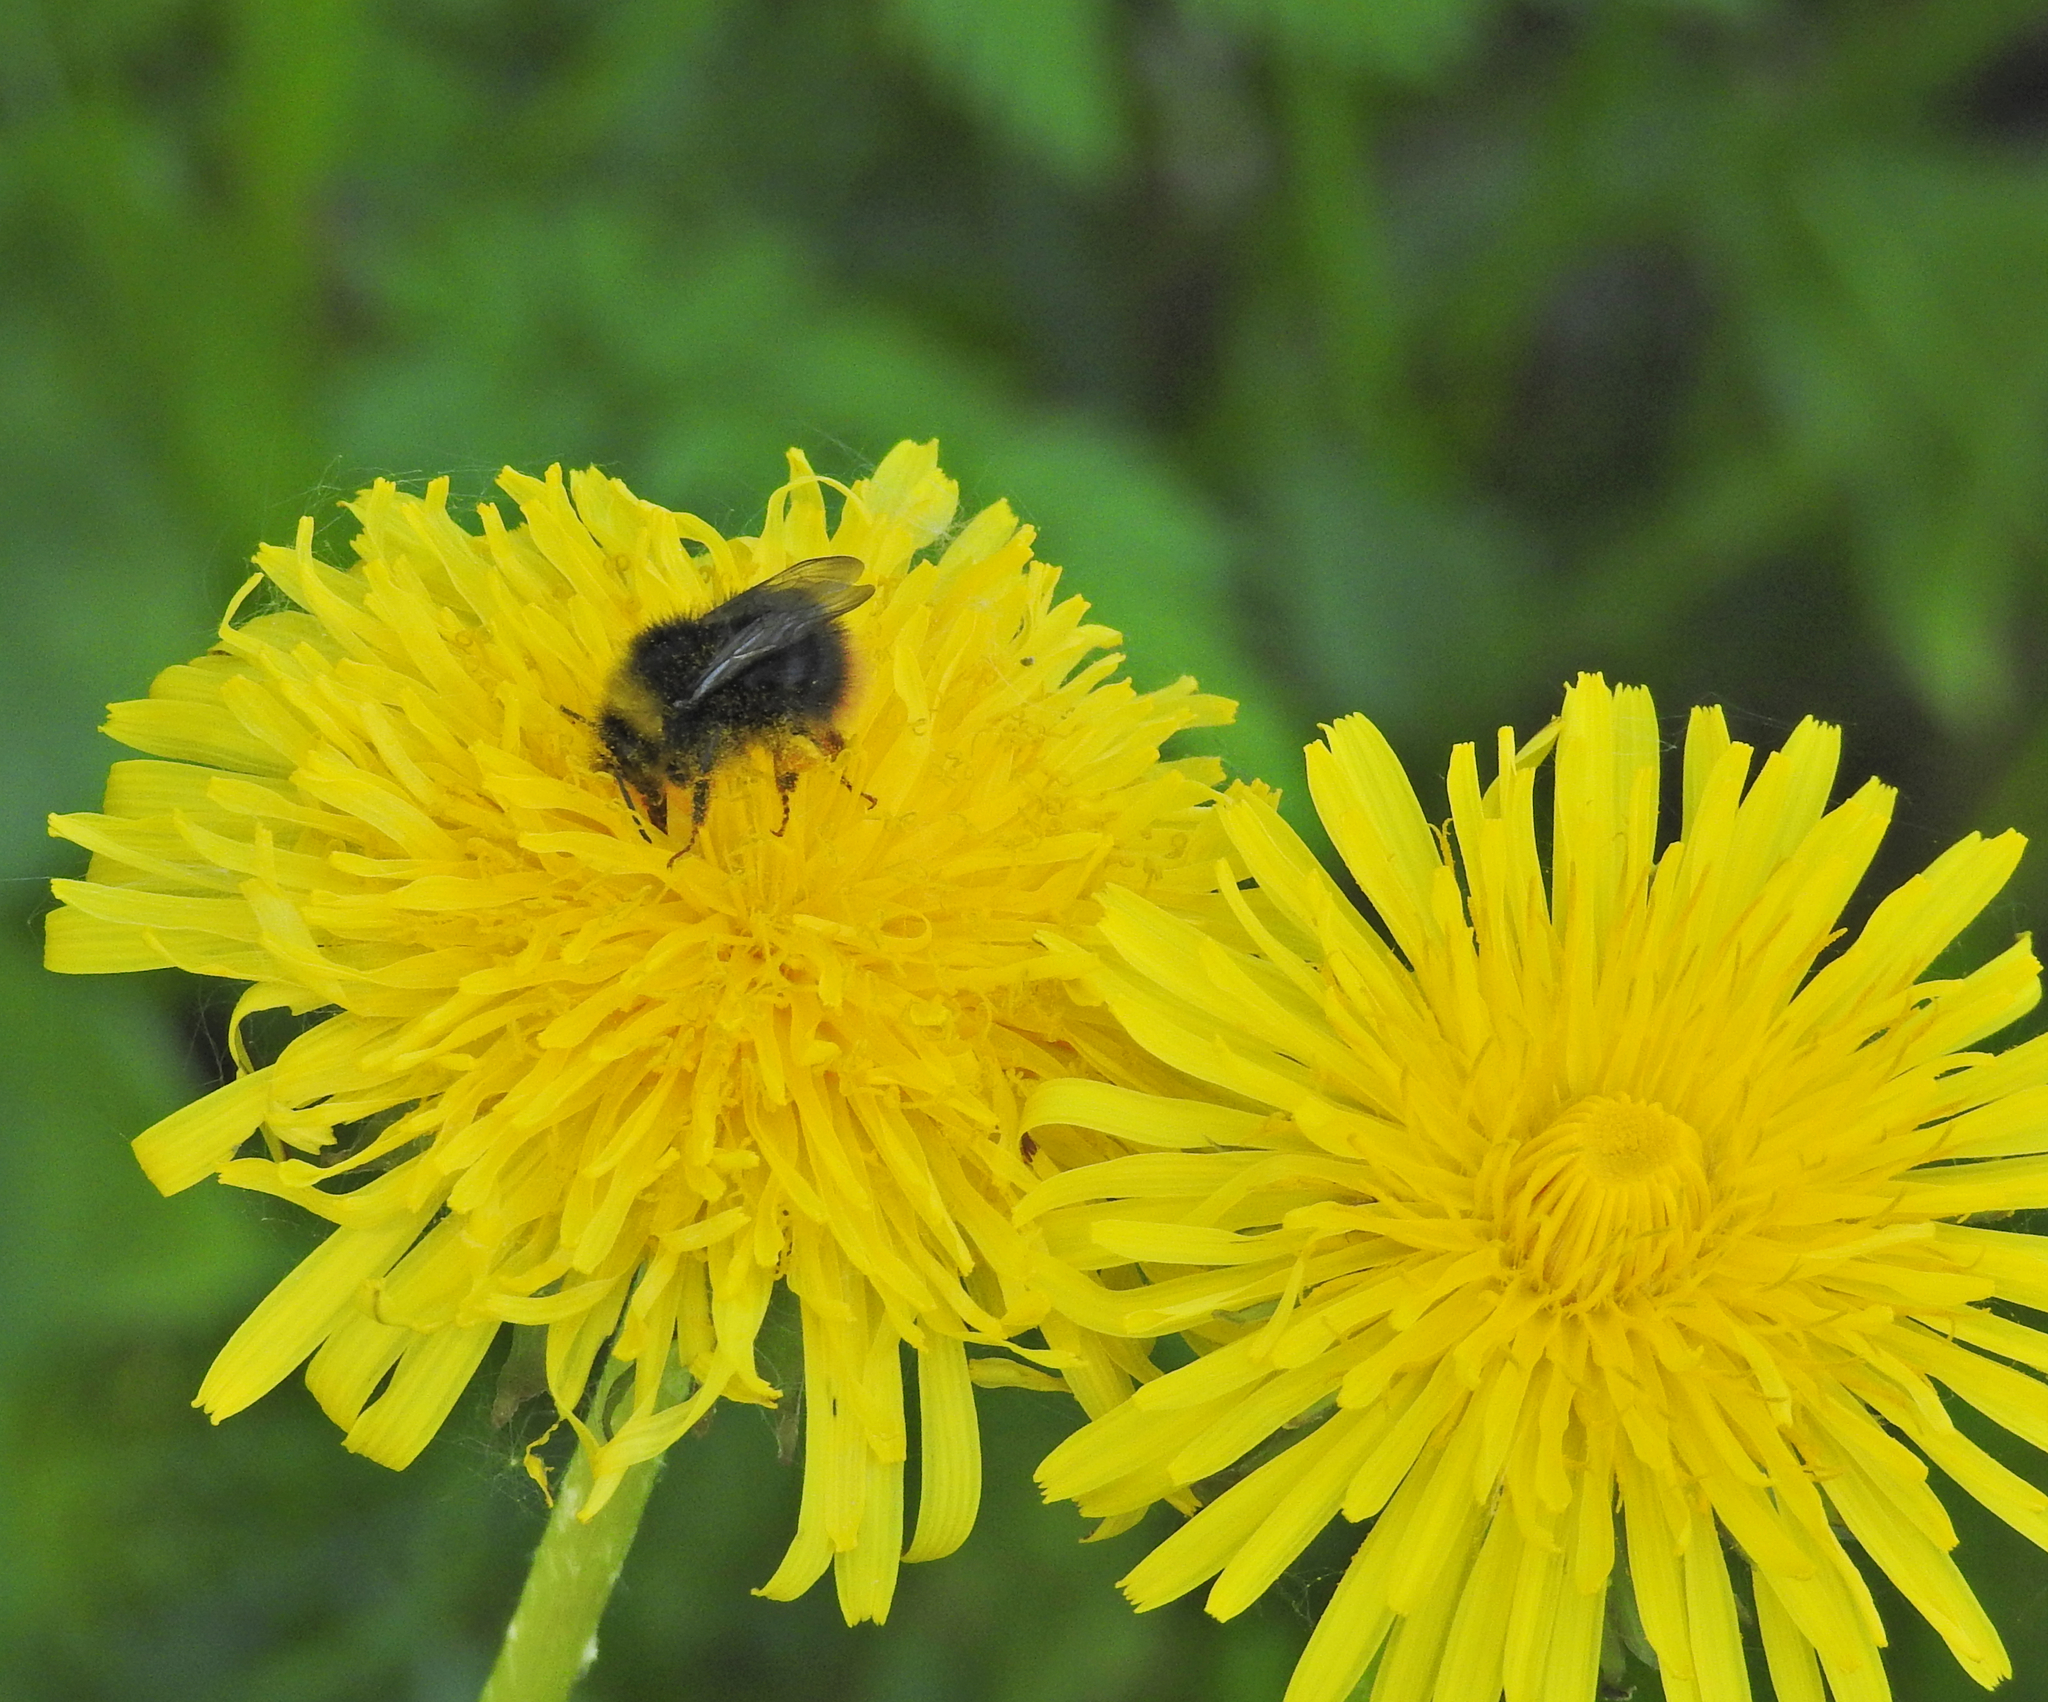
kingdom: Animalia
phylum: Arthropoda
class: Insecta
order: Hymenoptera
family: Apidae
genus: Bombus
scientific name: Bombus pratorum
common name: Early humble-bee
